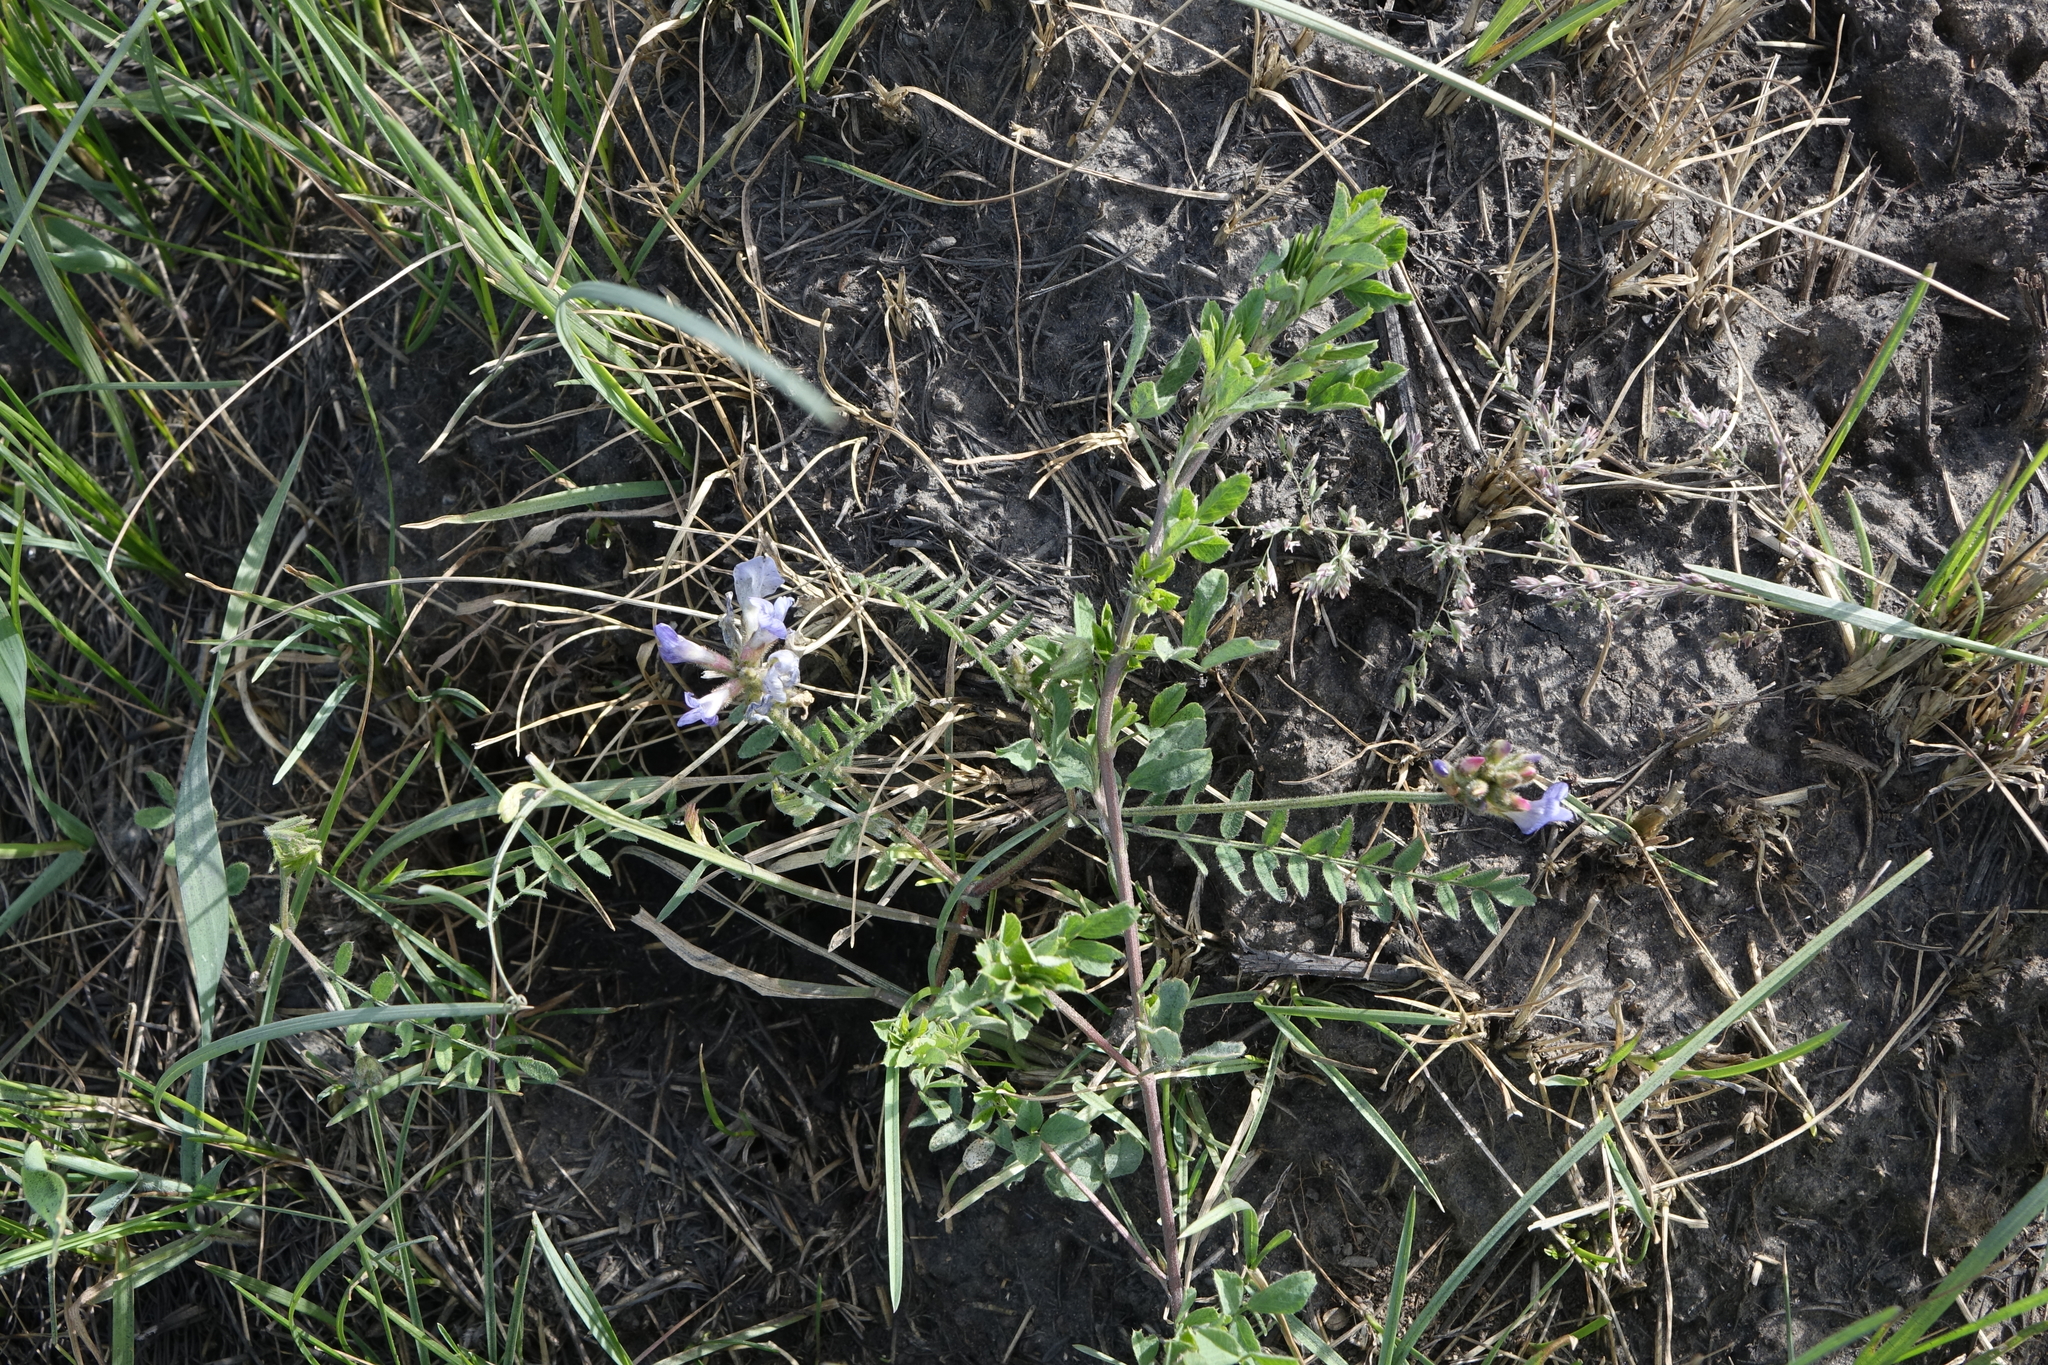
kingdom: Plantae
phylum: Tracheophyta
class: Magnoliopsida
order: Fabales
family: Fabaceae
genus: Astragalus
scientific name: Astragalus danicus
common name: Purple milk-vetch
